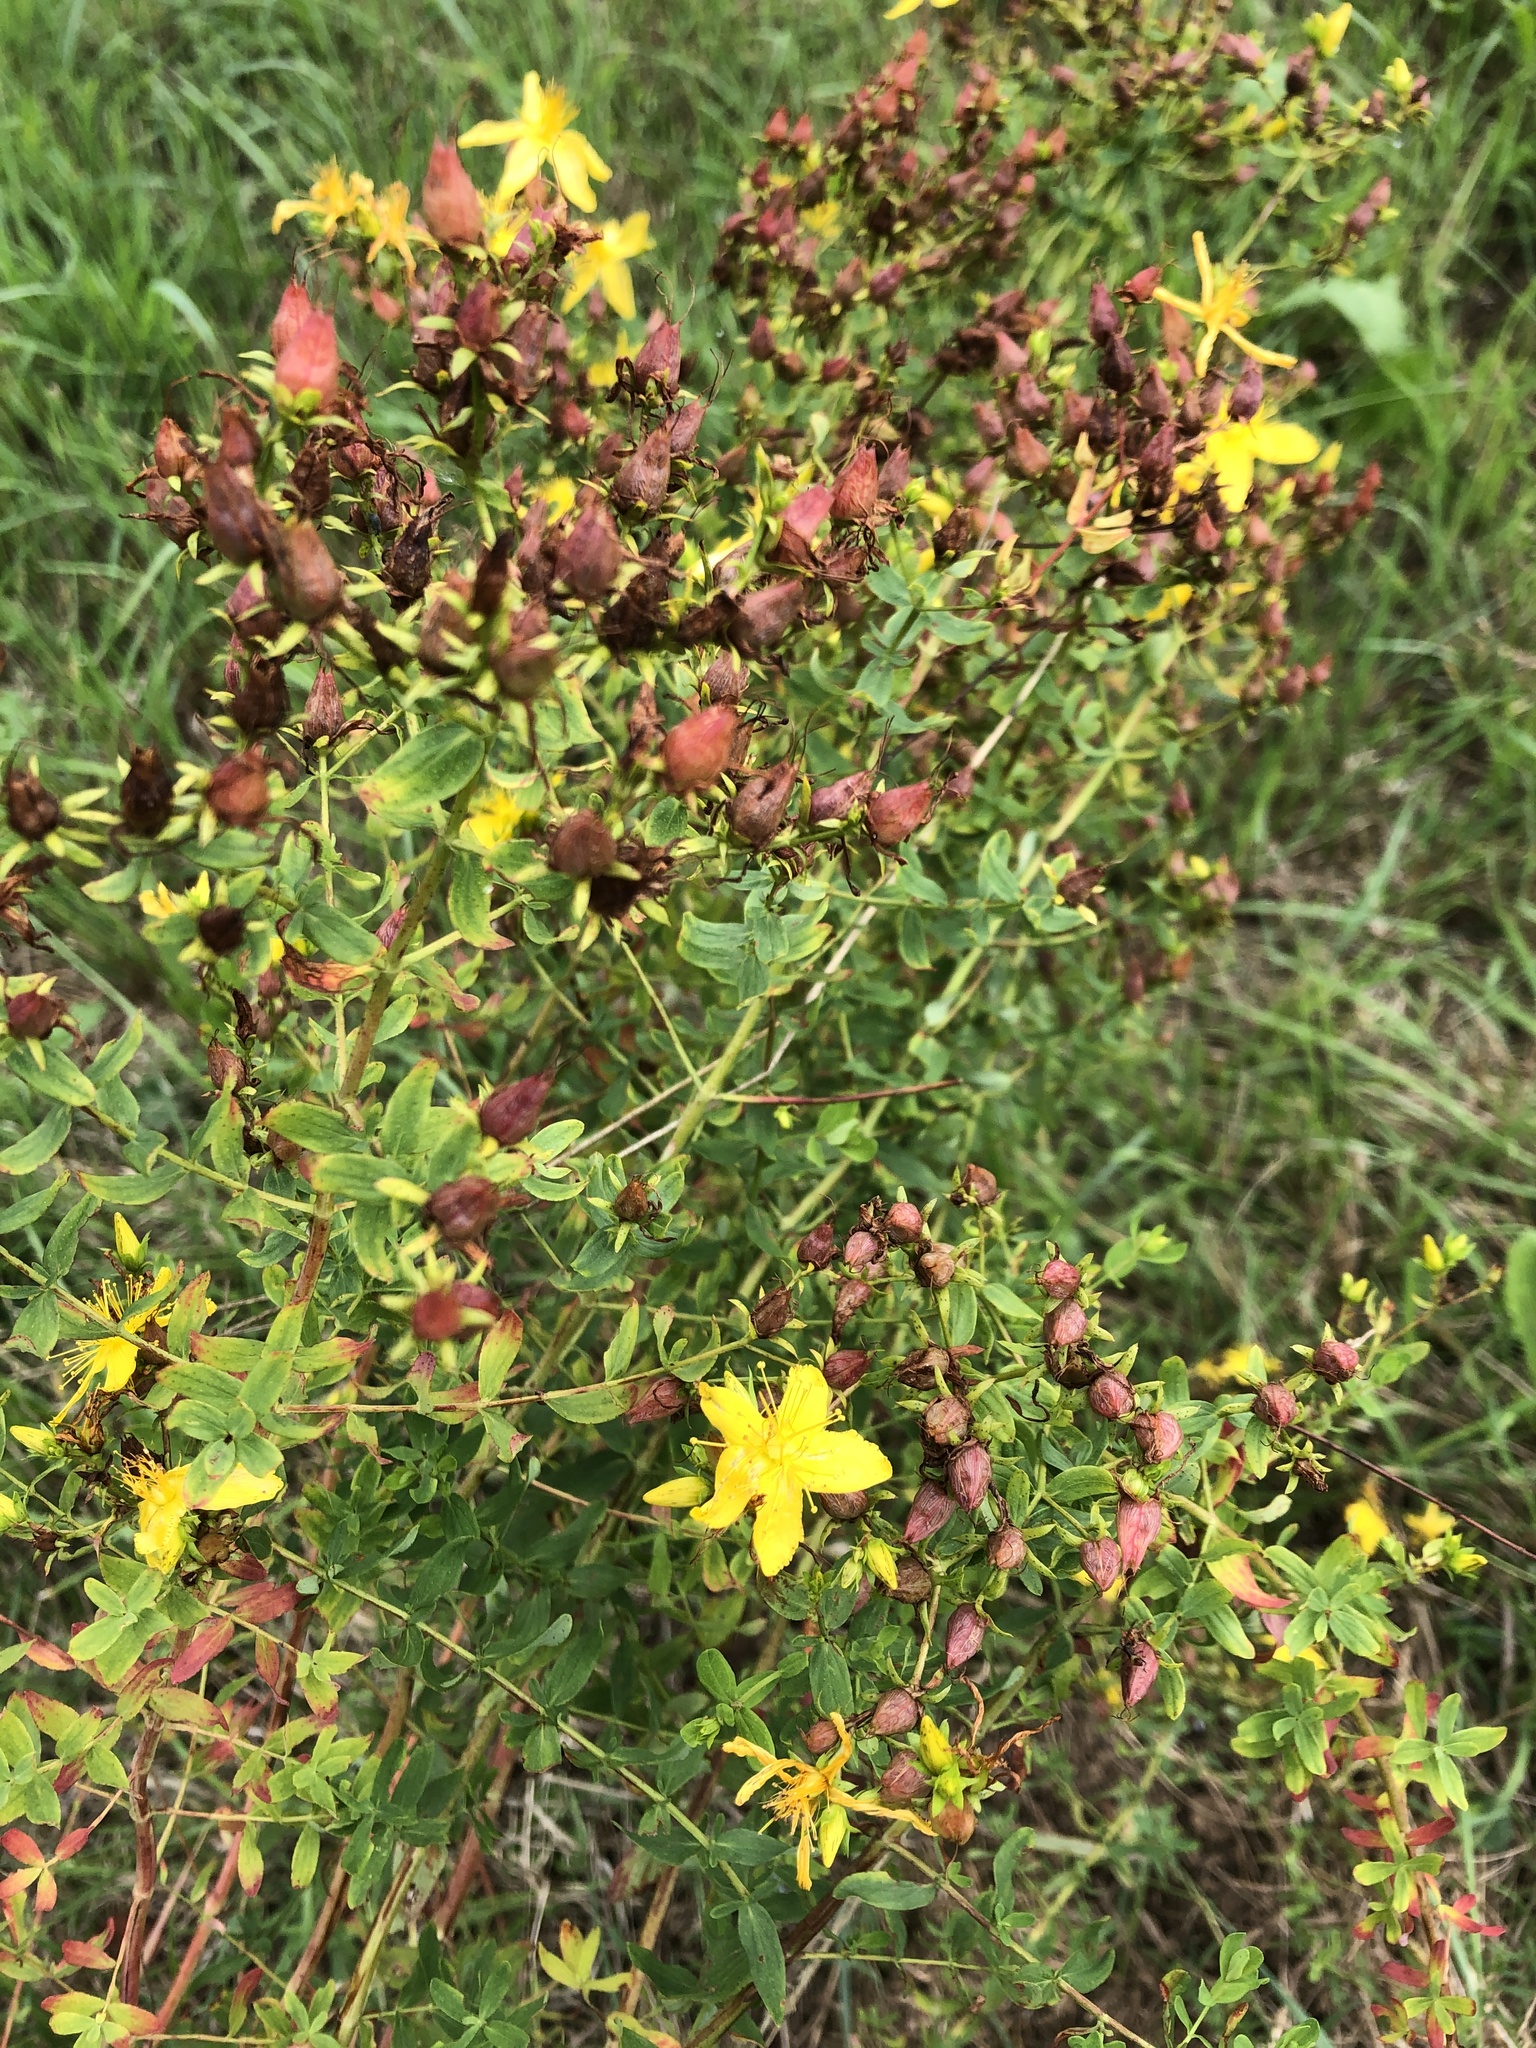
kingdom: Plantae
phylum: Tracheophyta
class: Magnoliopsida
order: Malpighiales
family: Hypericaceae
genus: Hypericum
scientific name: Hypericum perforatum
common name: Common st. johnswort
